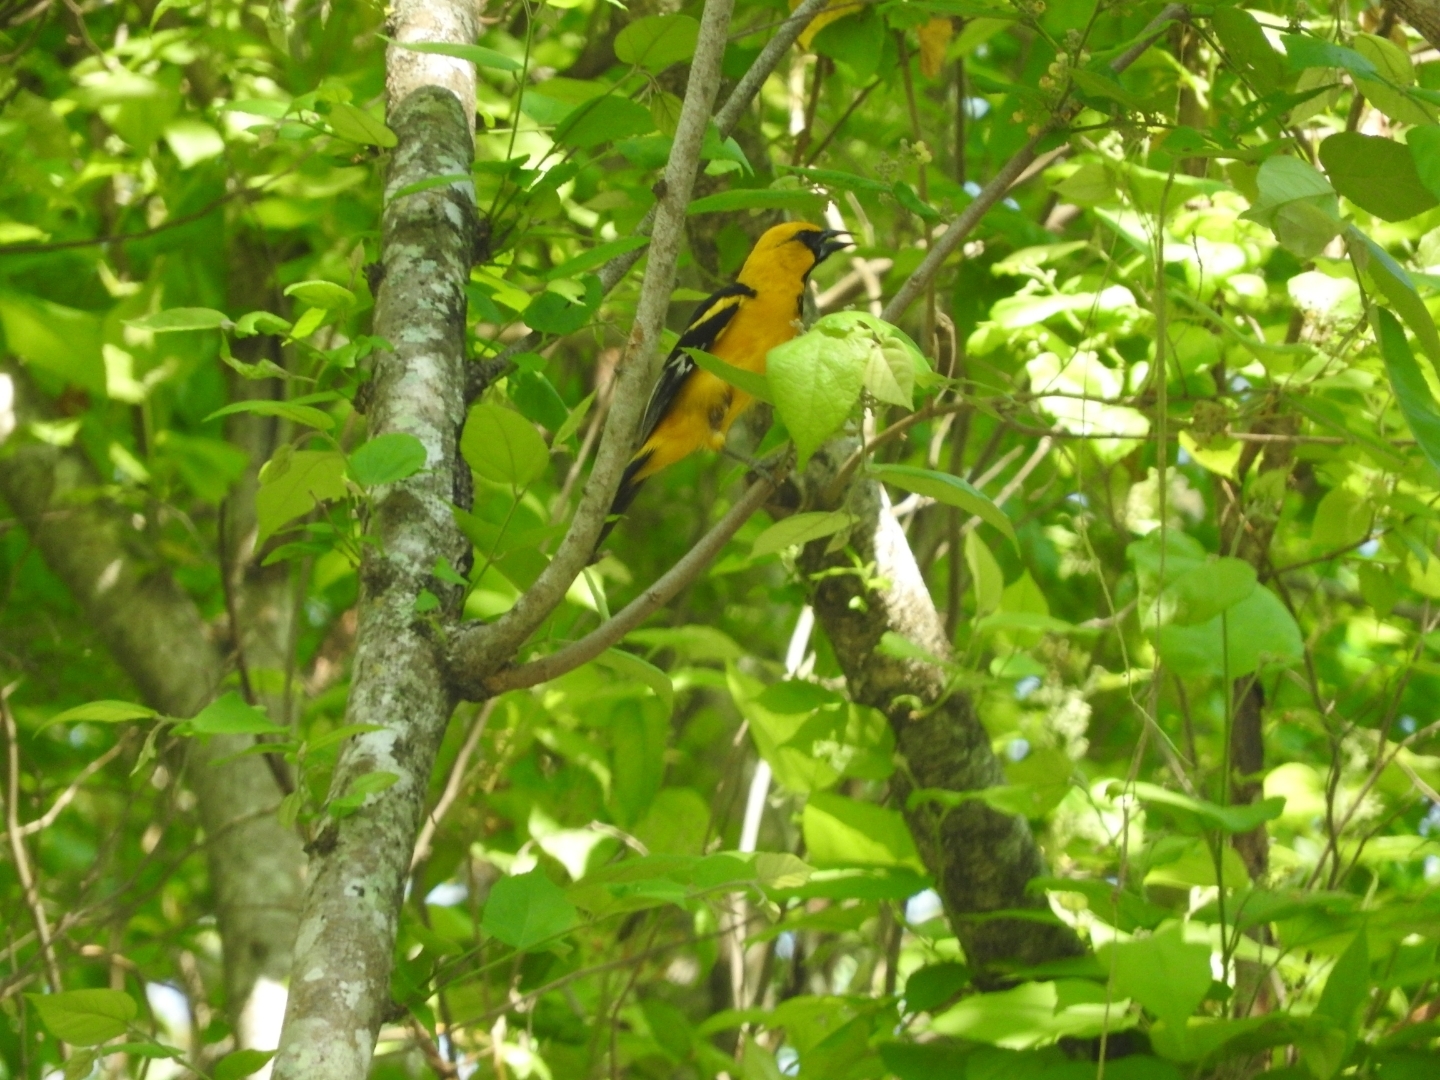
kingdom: Animalia
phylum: Chordata
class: Aves
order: Passeriformes
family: Icteridae
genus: Icterus
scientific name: Icterus auratus
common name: Orange oriole
